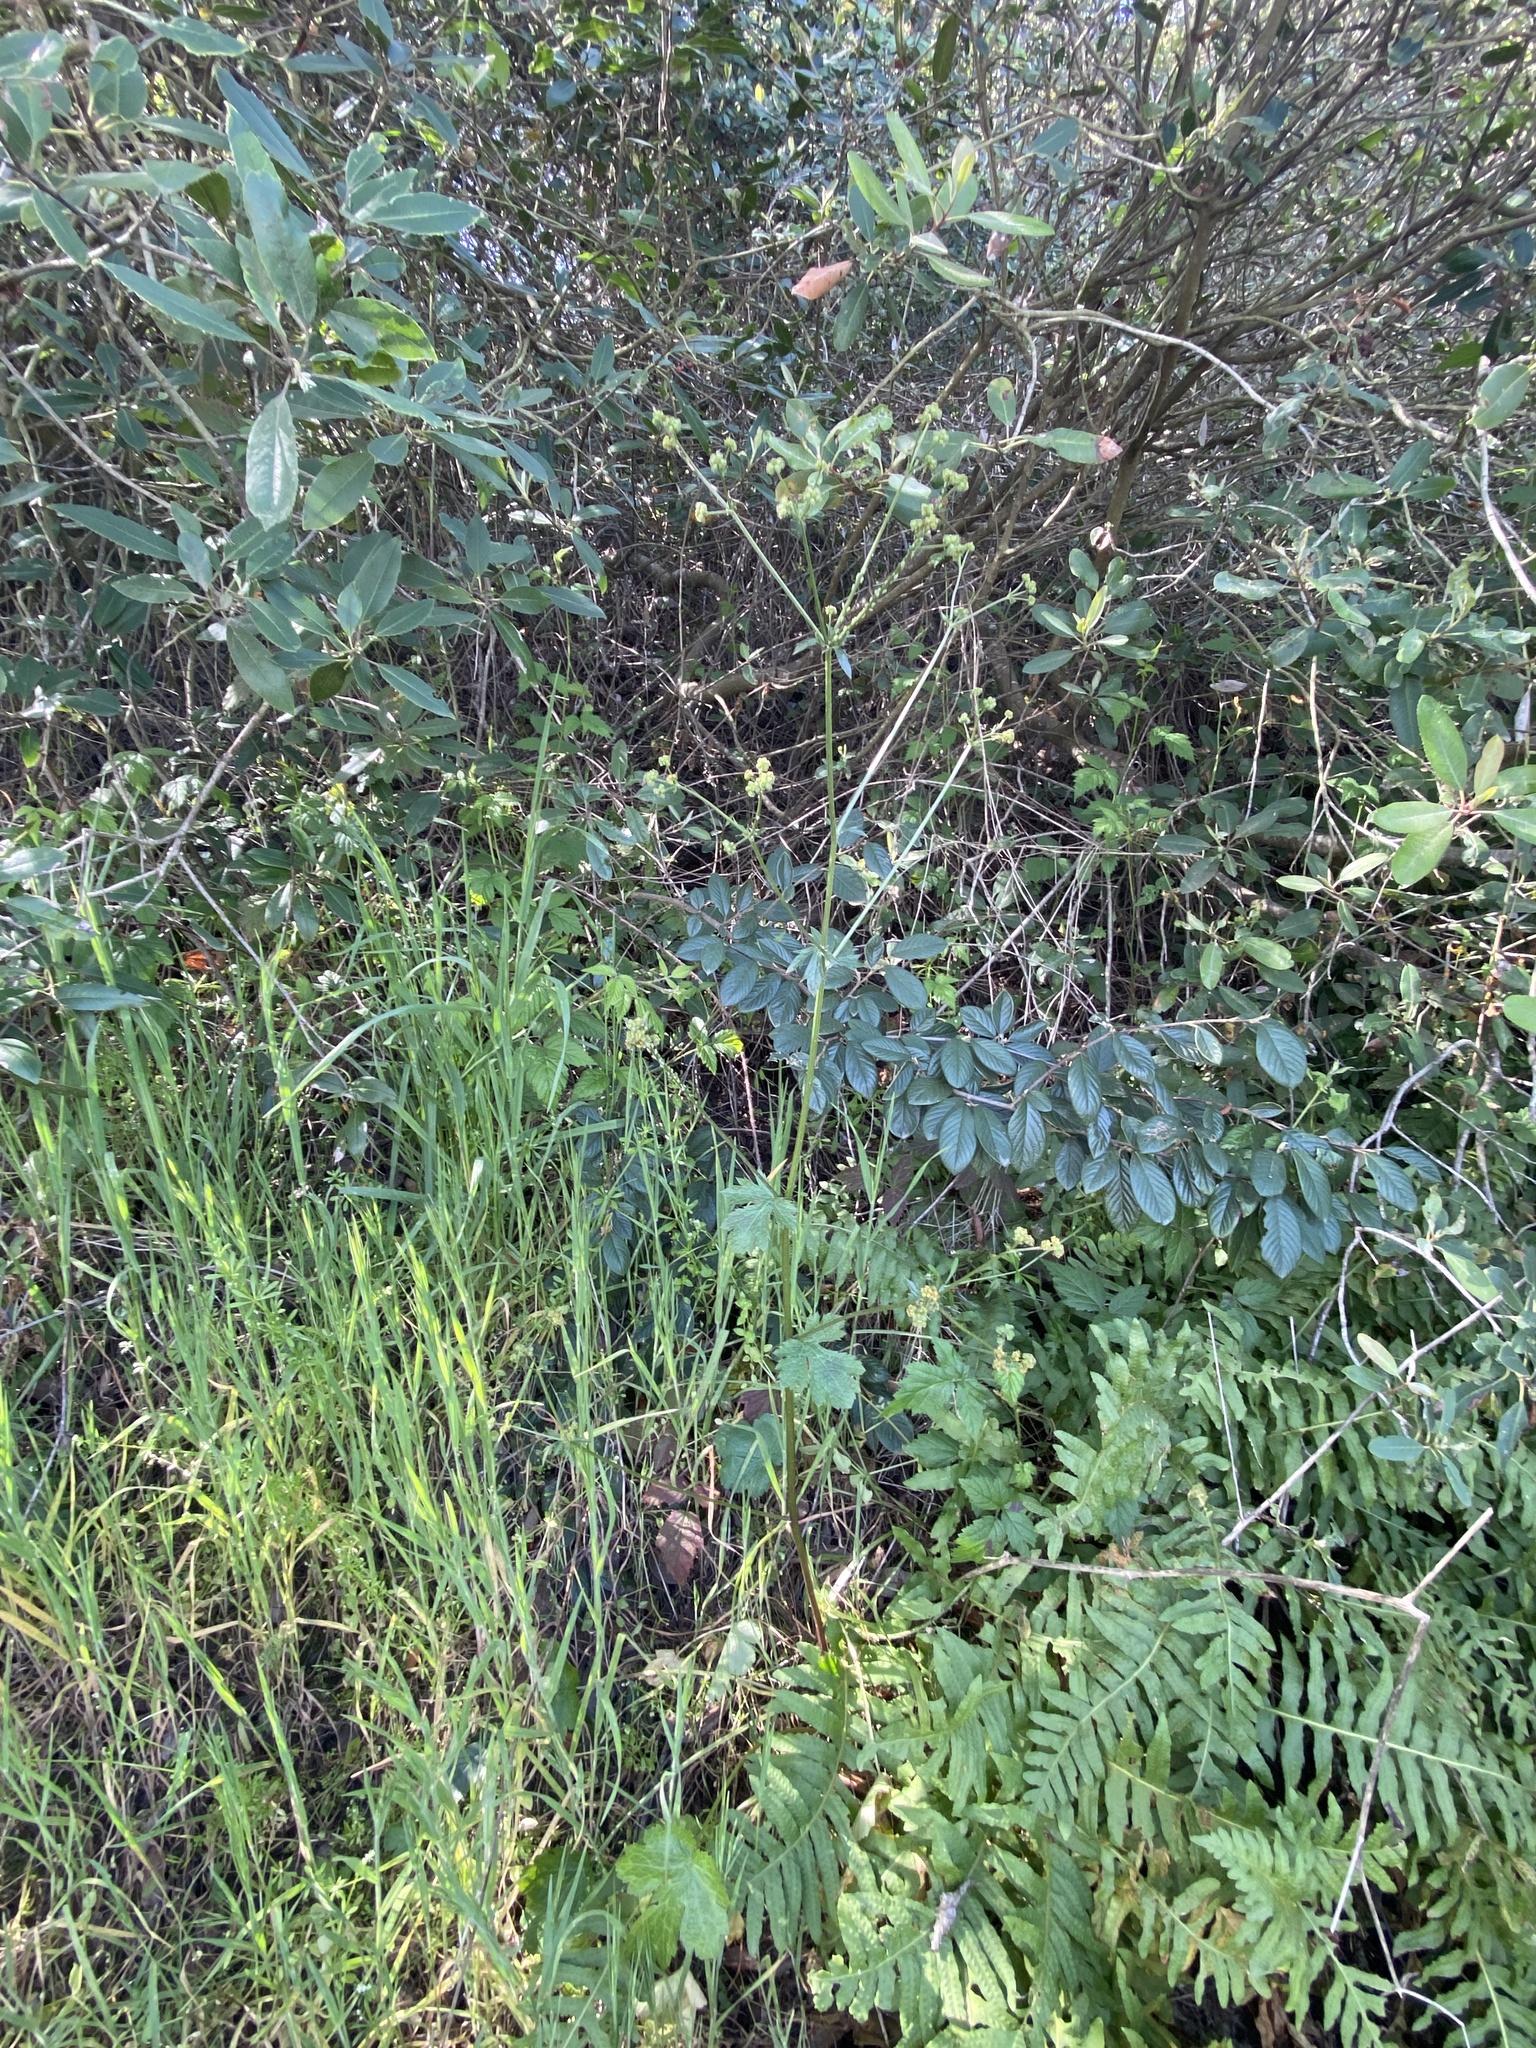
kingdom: Plantae
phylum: Tracheophyta
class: Magnoliopsida
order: Apiales
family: Apiaceae
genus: Sanicula
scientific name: Sanicula crassicaulis
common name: Western snakeroot
